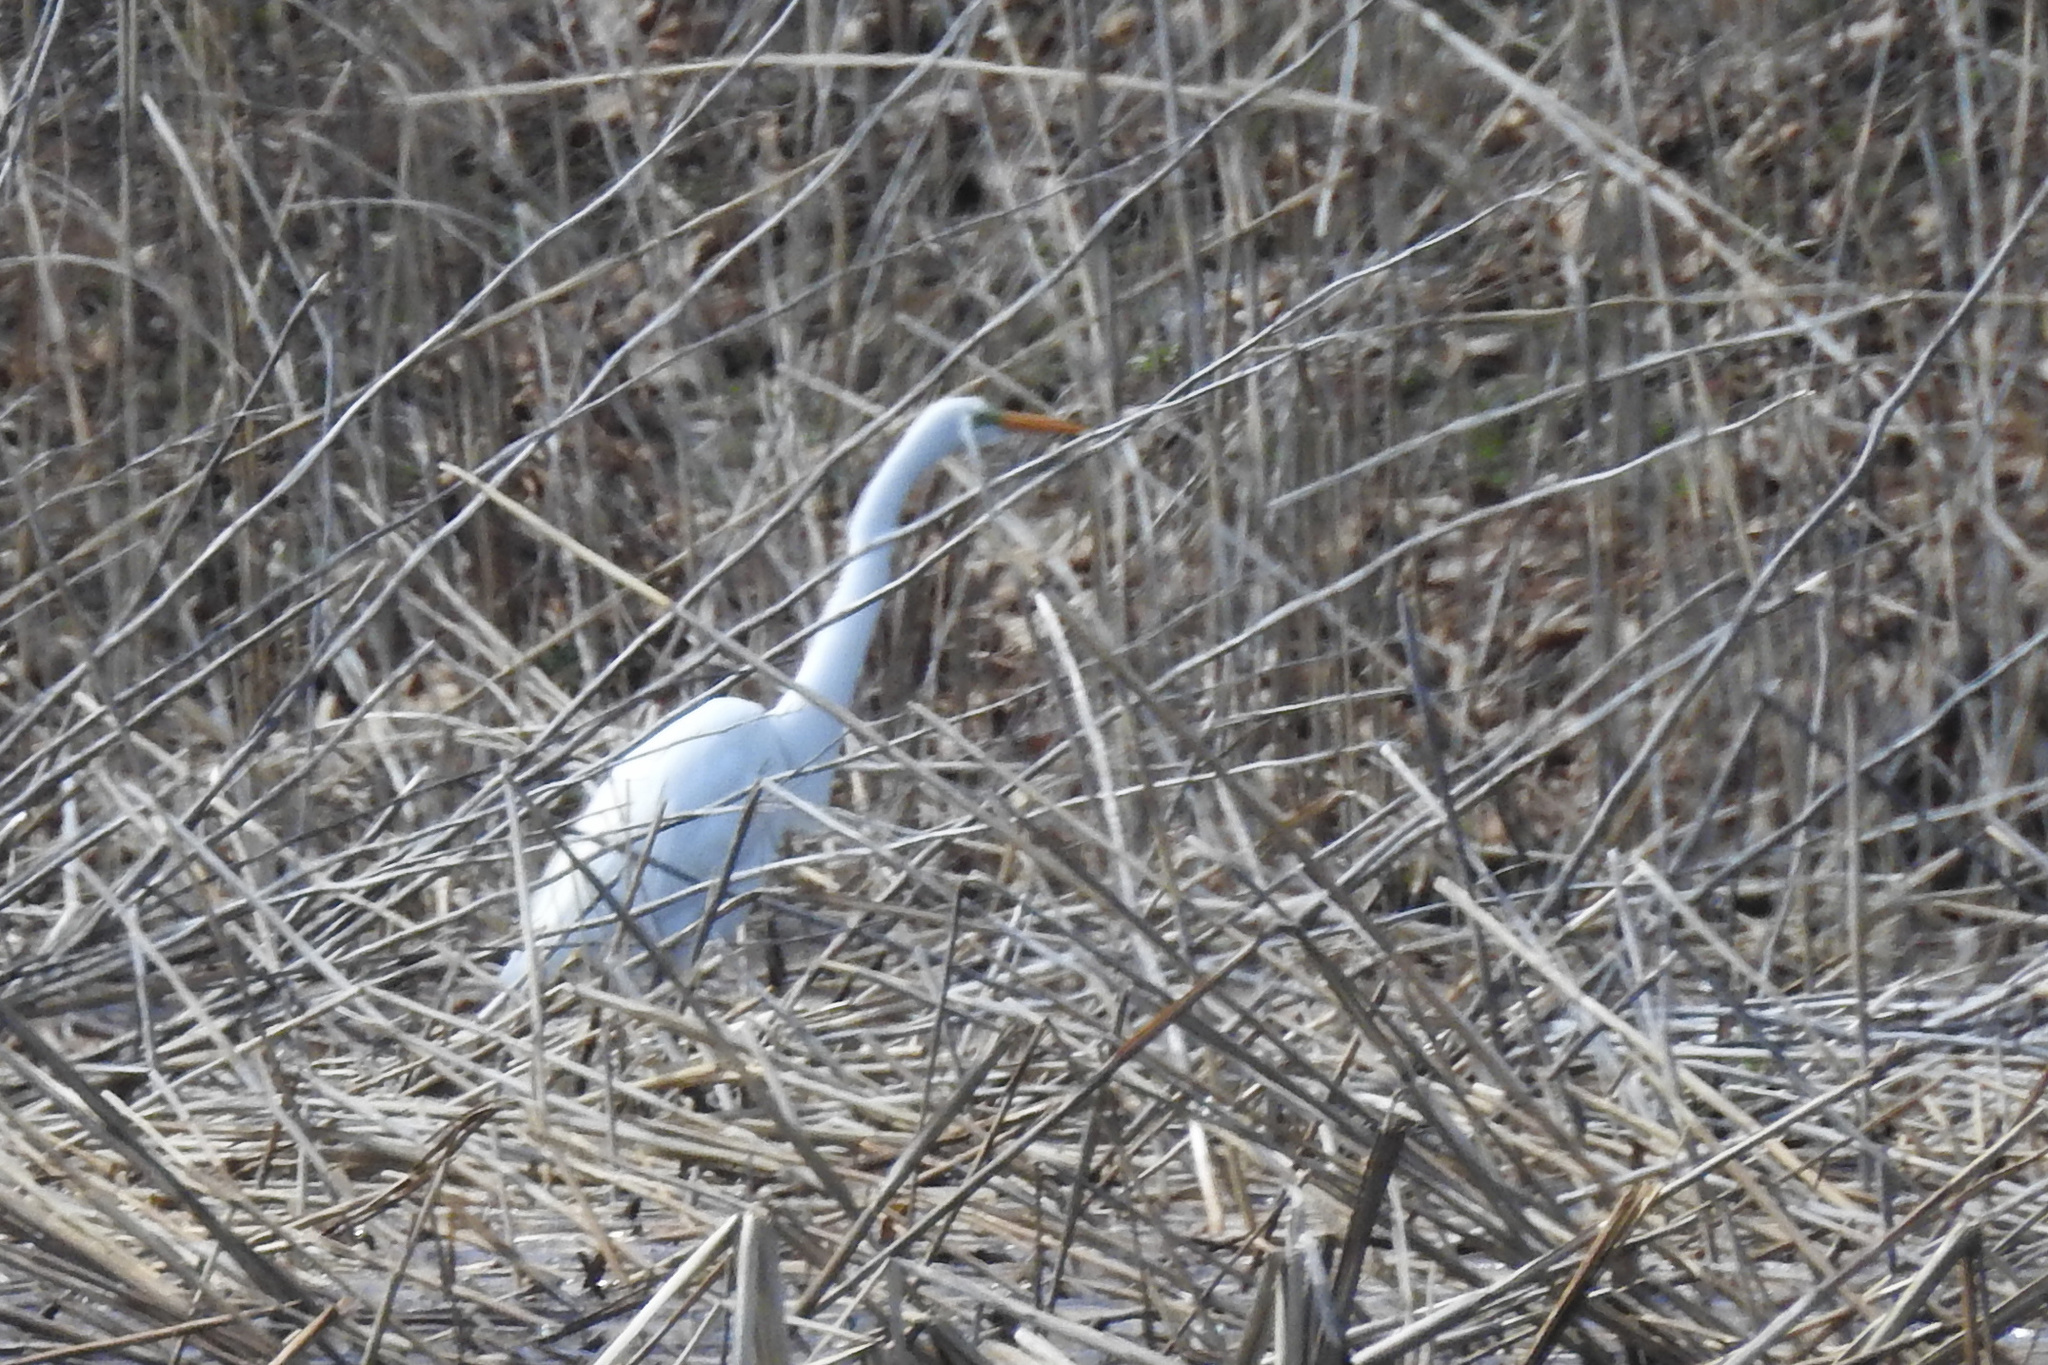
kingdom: Animalia
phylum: Chordata
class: Aves
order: Pelecaniformes
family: Ardeidae
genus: Ardea
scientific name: Ardea alba
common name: Great egret
